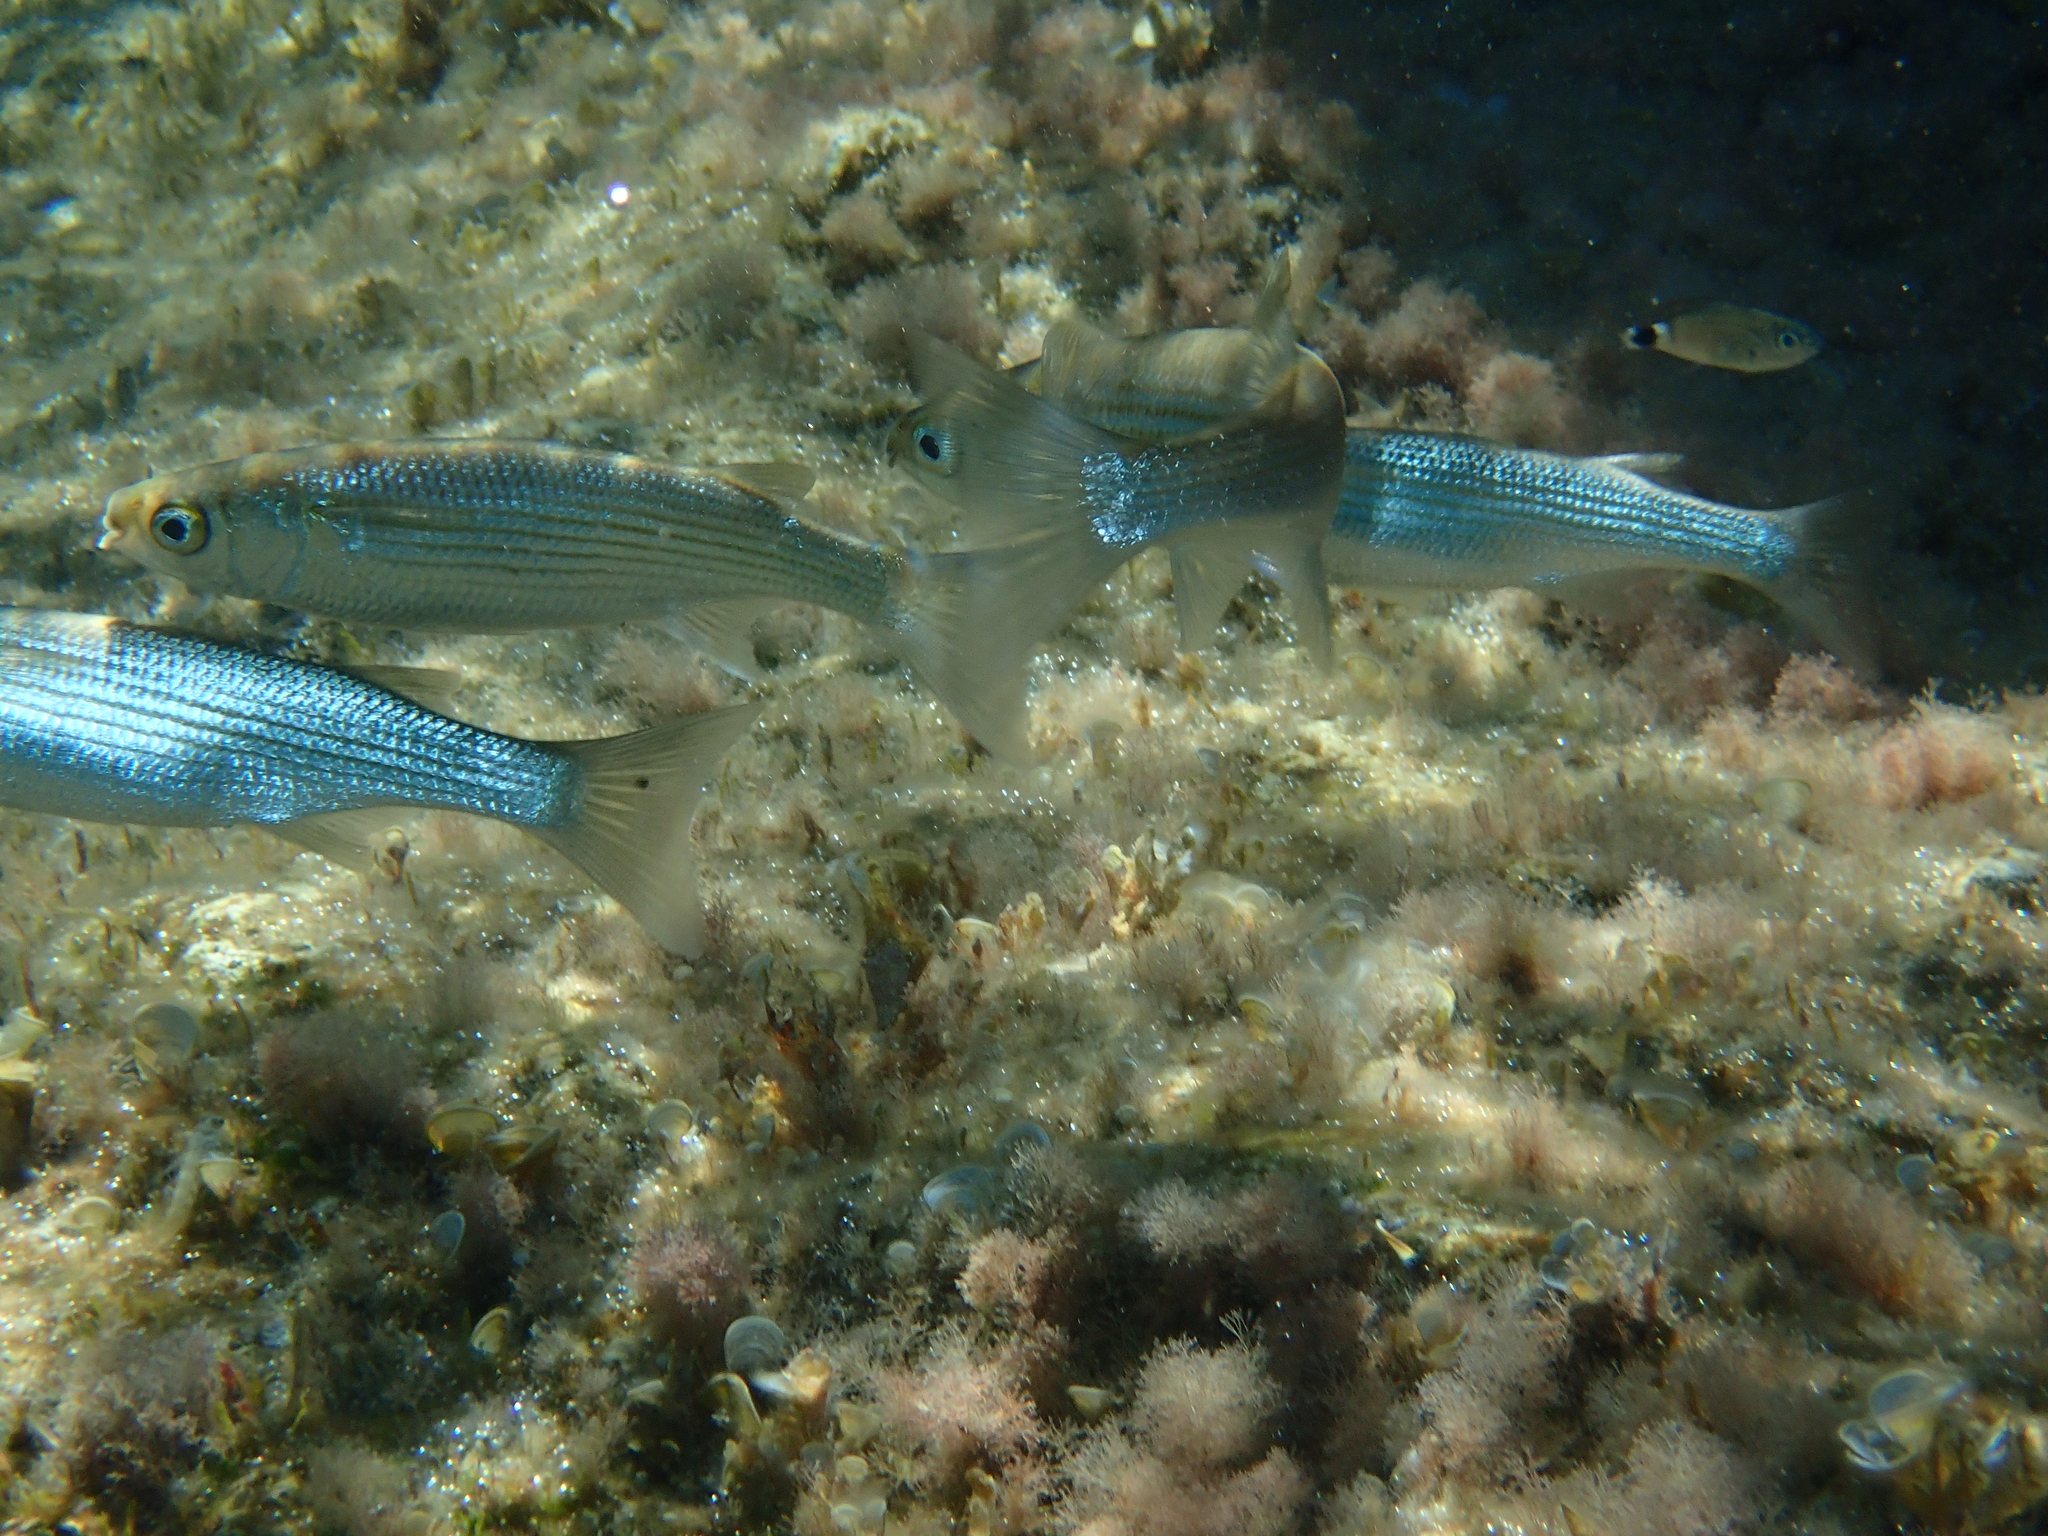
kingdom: Animalia
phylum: Chordata
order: Mugiliformes
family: Mugilidae
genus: Oedalechilus
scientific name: Oedalechilus labeo
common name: Boxlip mullet
